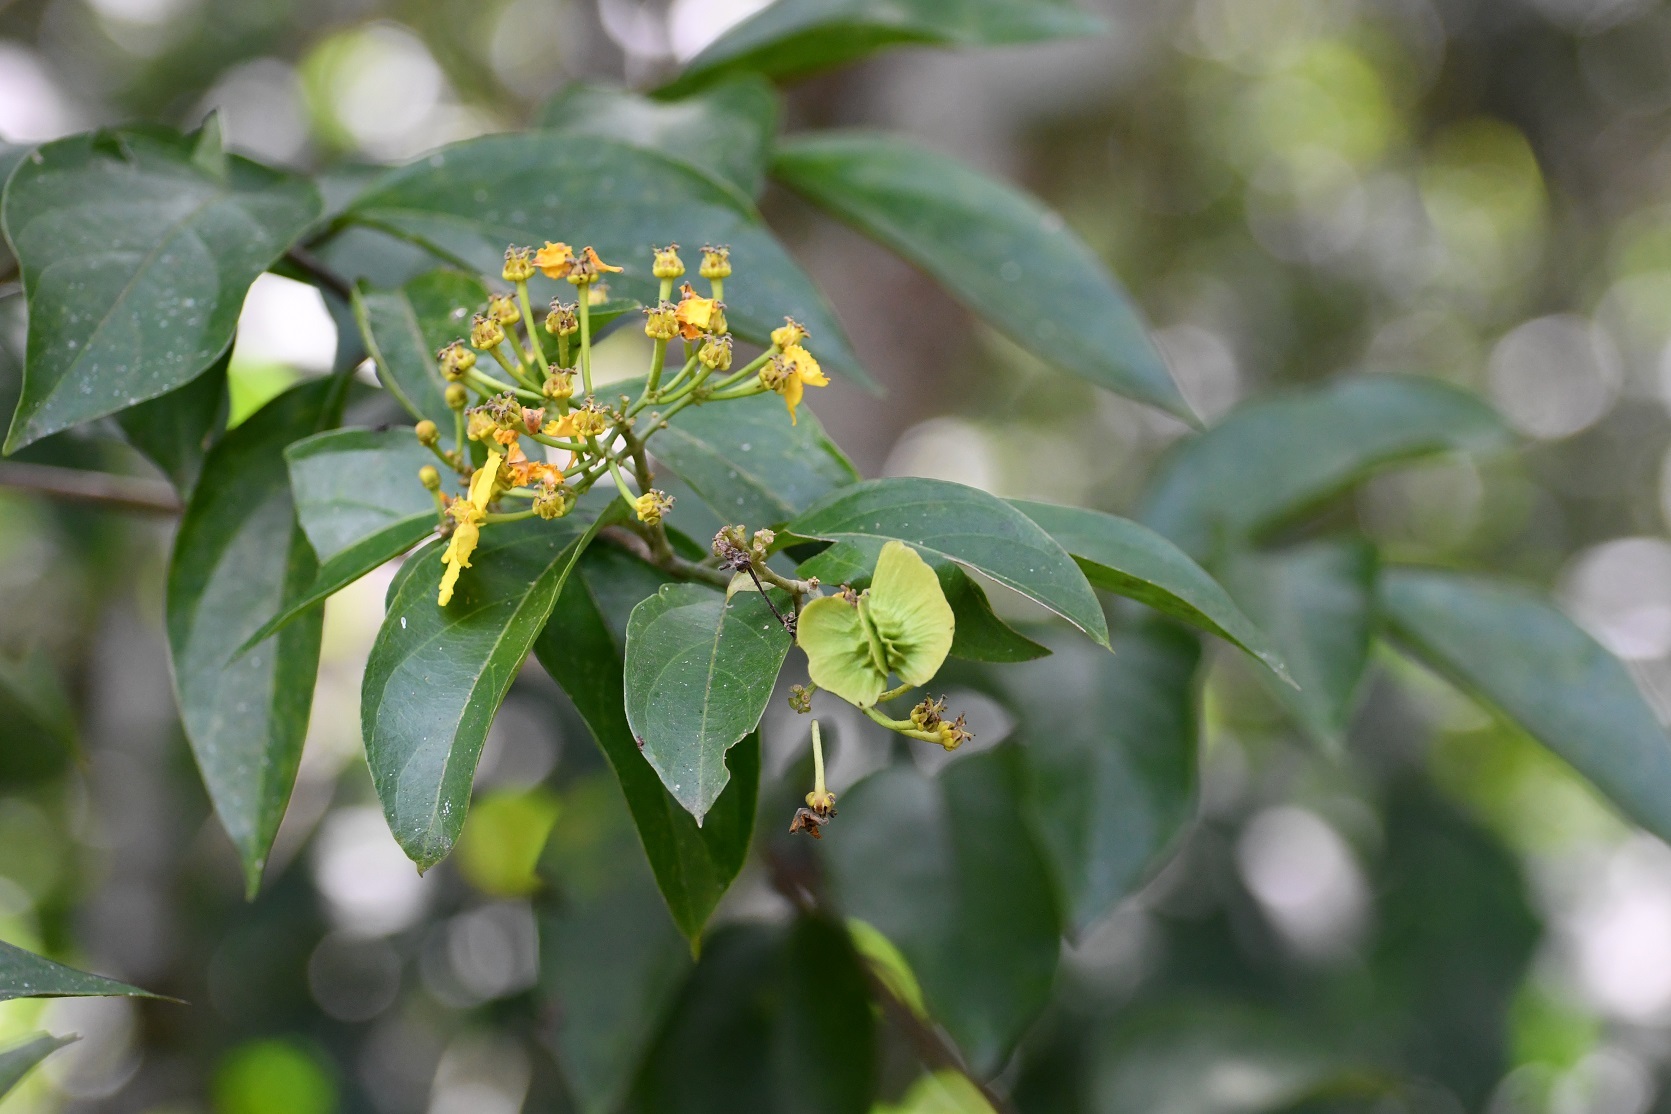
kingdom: Plantae
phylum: Tracheophyta
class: Magnoliopsida
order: Malpighiales
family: Malpighiaceae
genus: Tetrapterys
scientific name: Tetrapterys mexicana
